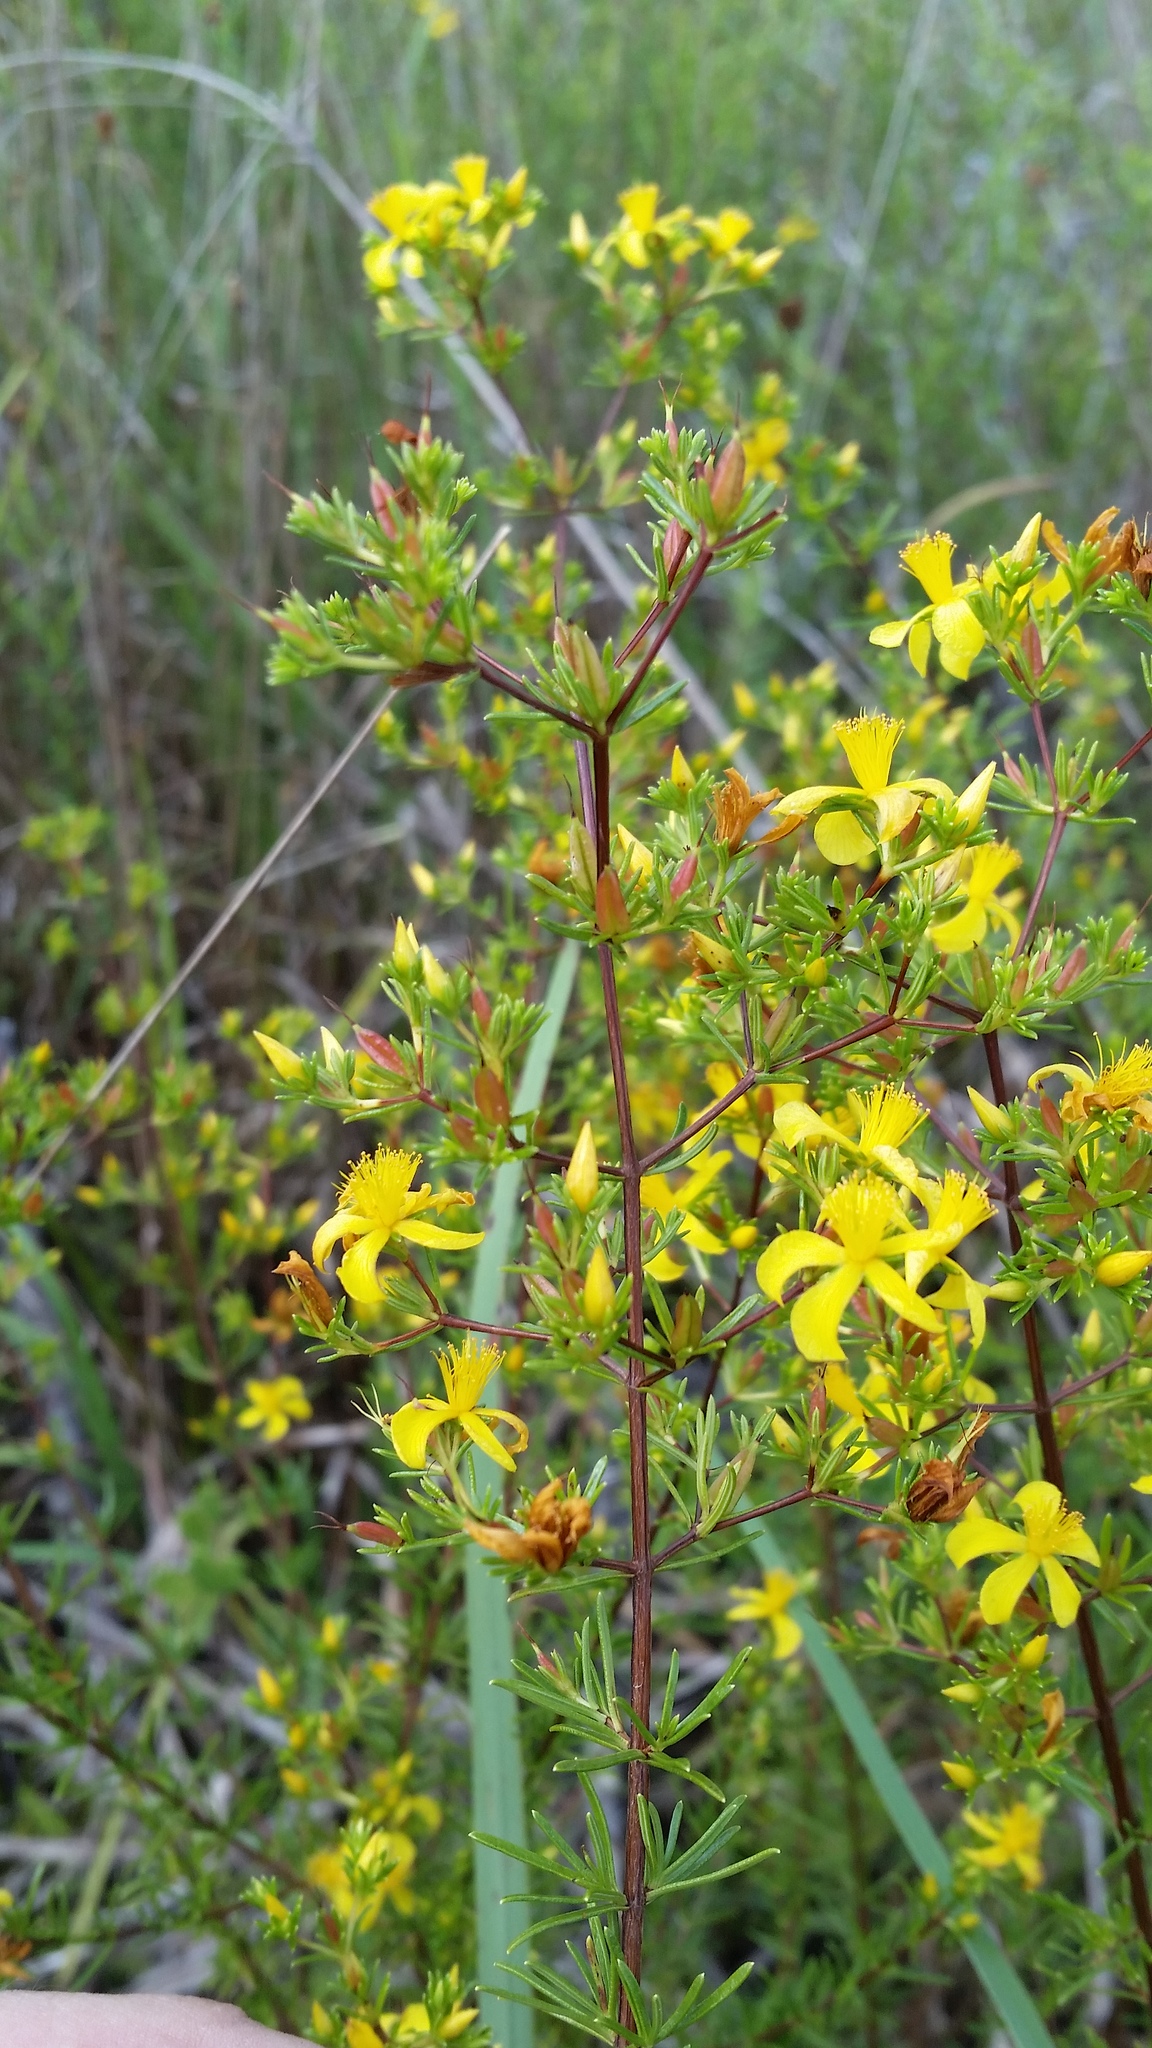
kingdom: Plantae
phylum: Tracheophyta
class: Magnoliopsida
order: Malpighiales
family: Hypericaceae
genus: Hypericum
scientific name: Hypericum limosum
